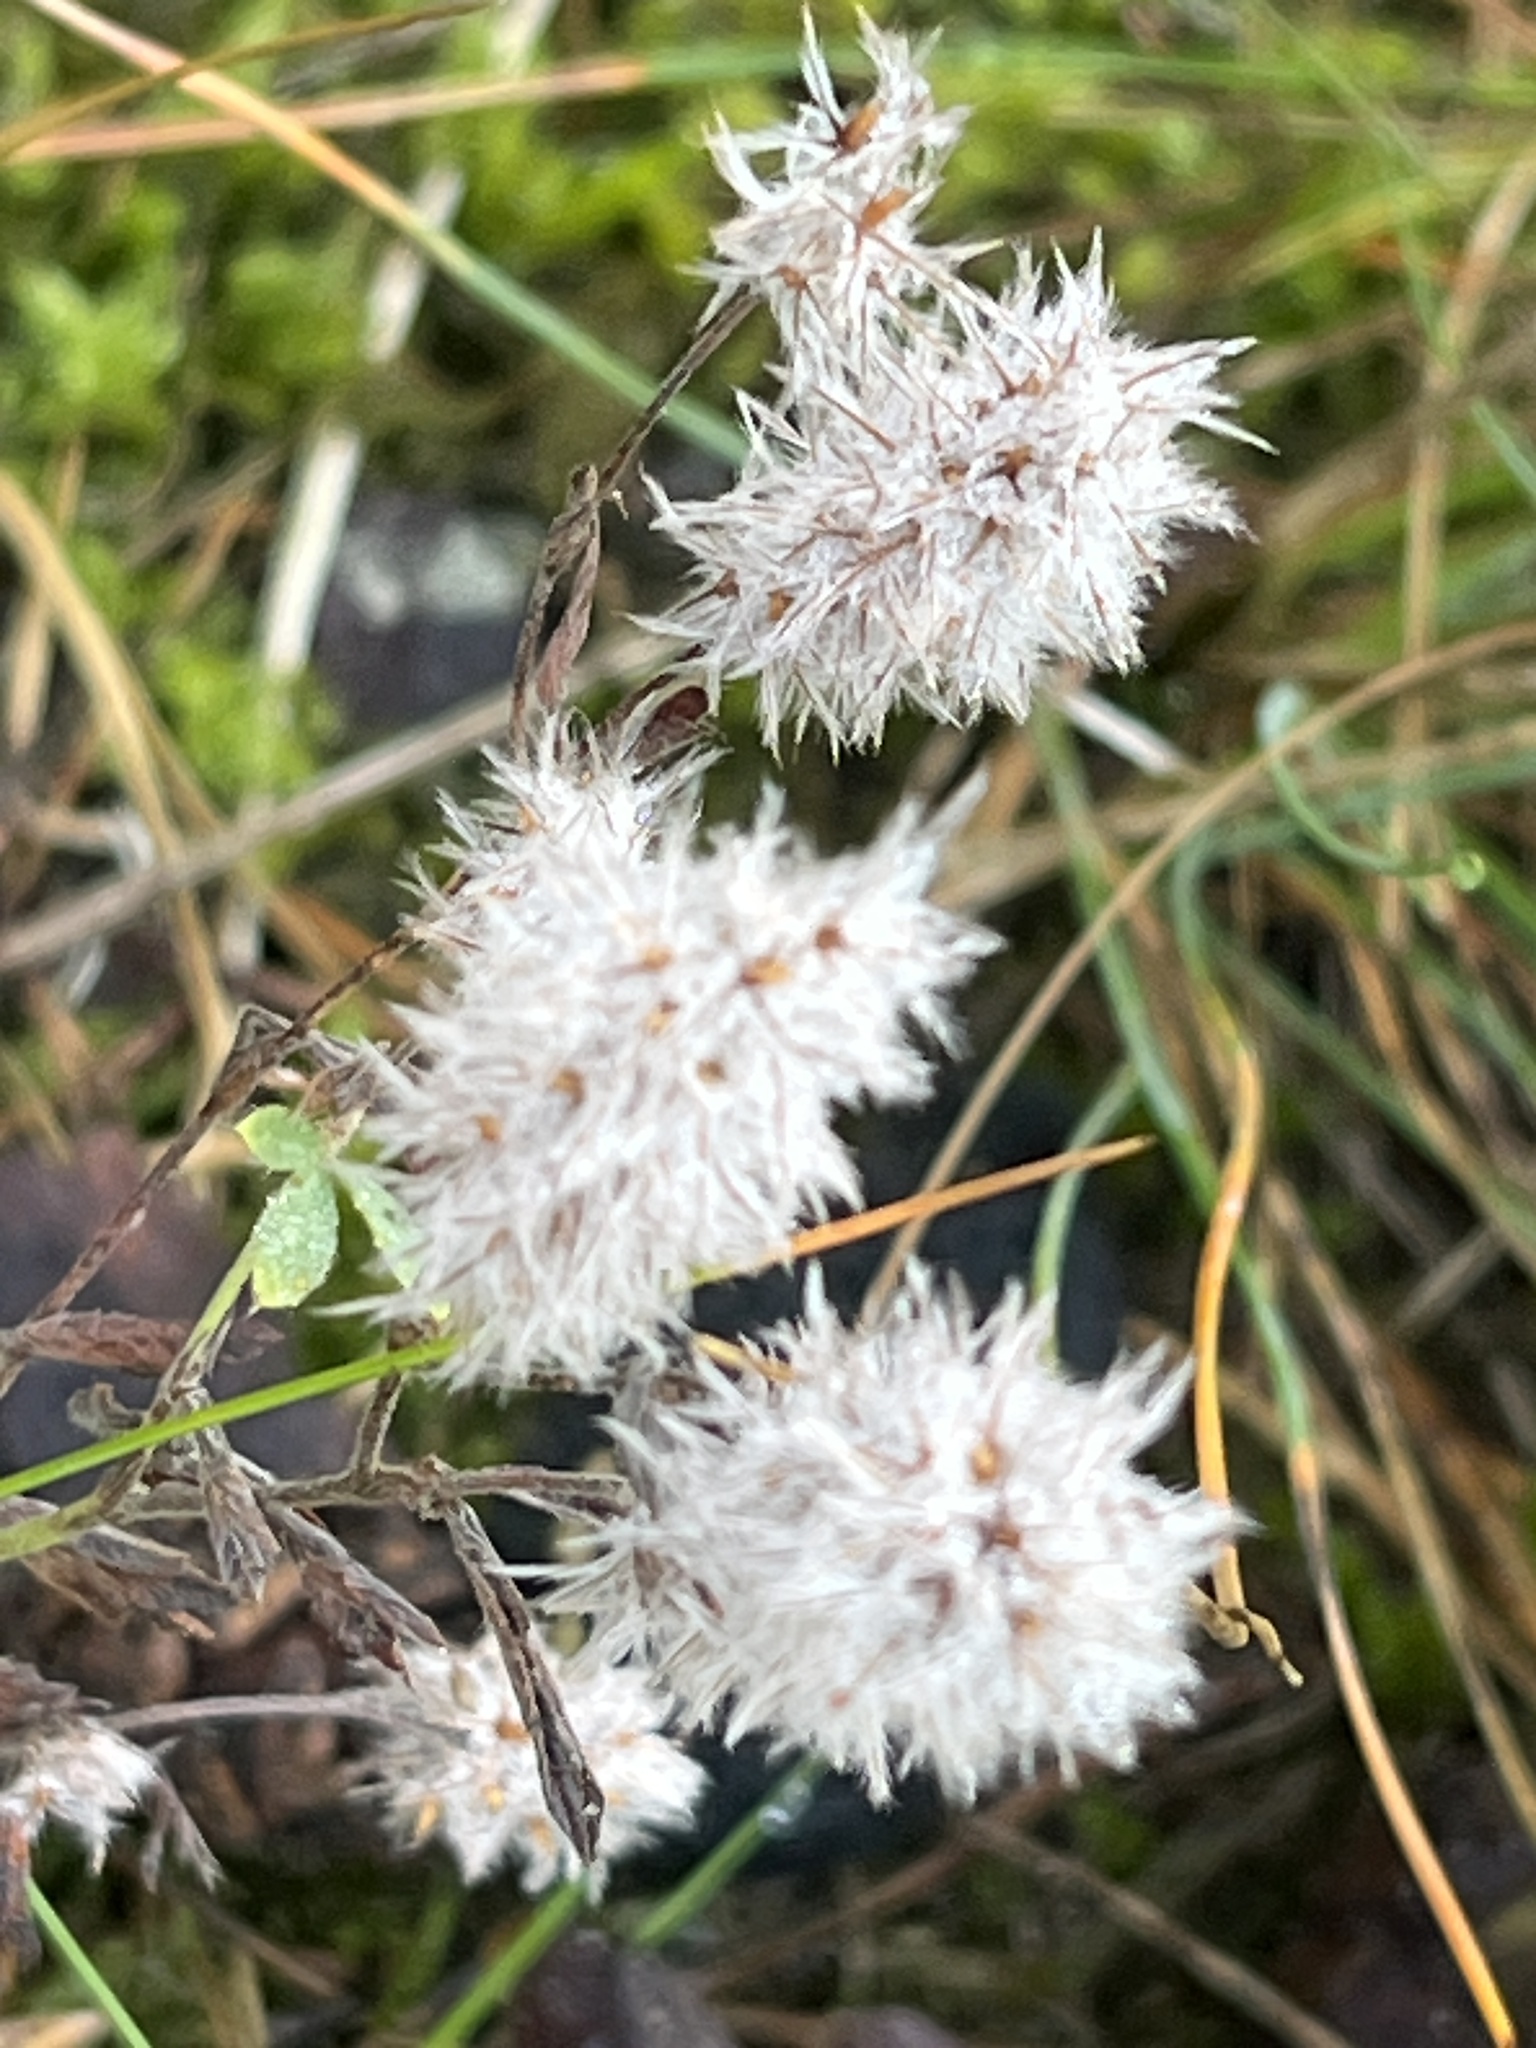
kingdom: Plantae
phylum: Tracheophyta
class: Magnoliopsida
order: Fabales
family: Fabaceae
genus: Trifolium
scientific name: Trifolium arvense
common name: Hare's-foot clover
